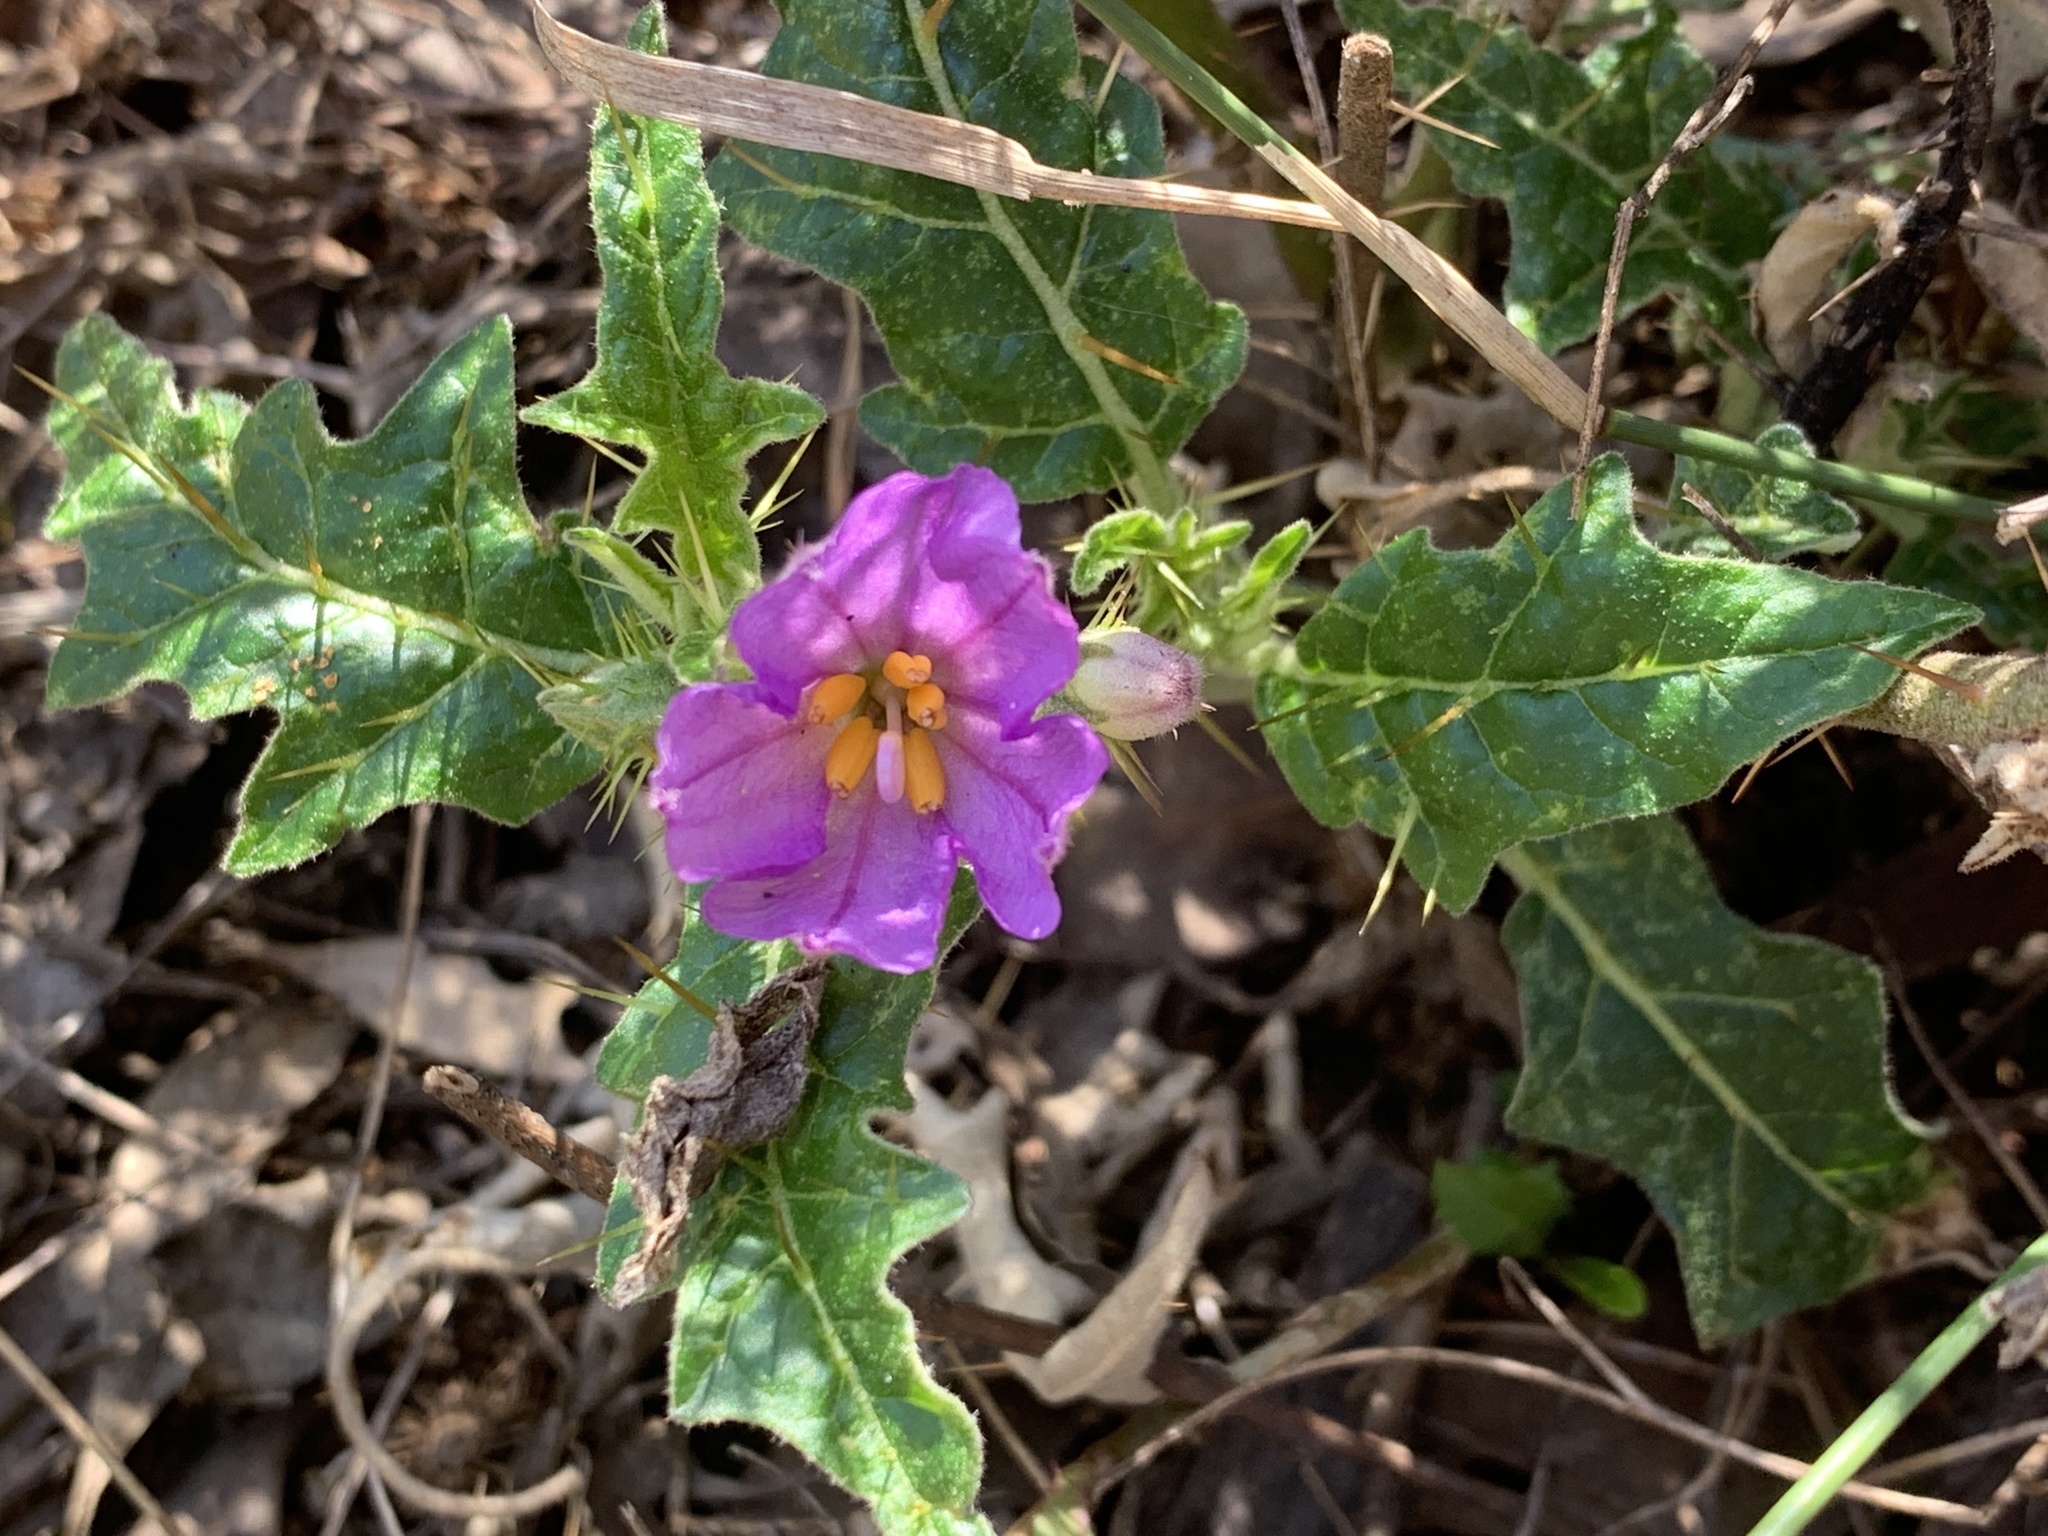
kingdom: Plantae
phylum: Tracheophyta
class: Magnoliopsida
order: Solanales
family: Solanaceae
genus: Solanum
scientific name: Solanum cinereum
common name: Narrawa-bur
